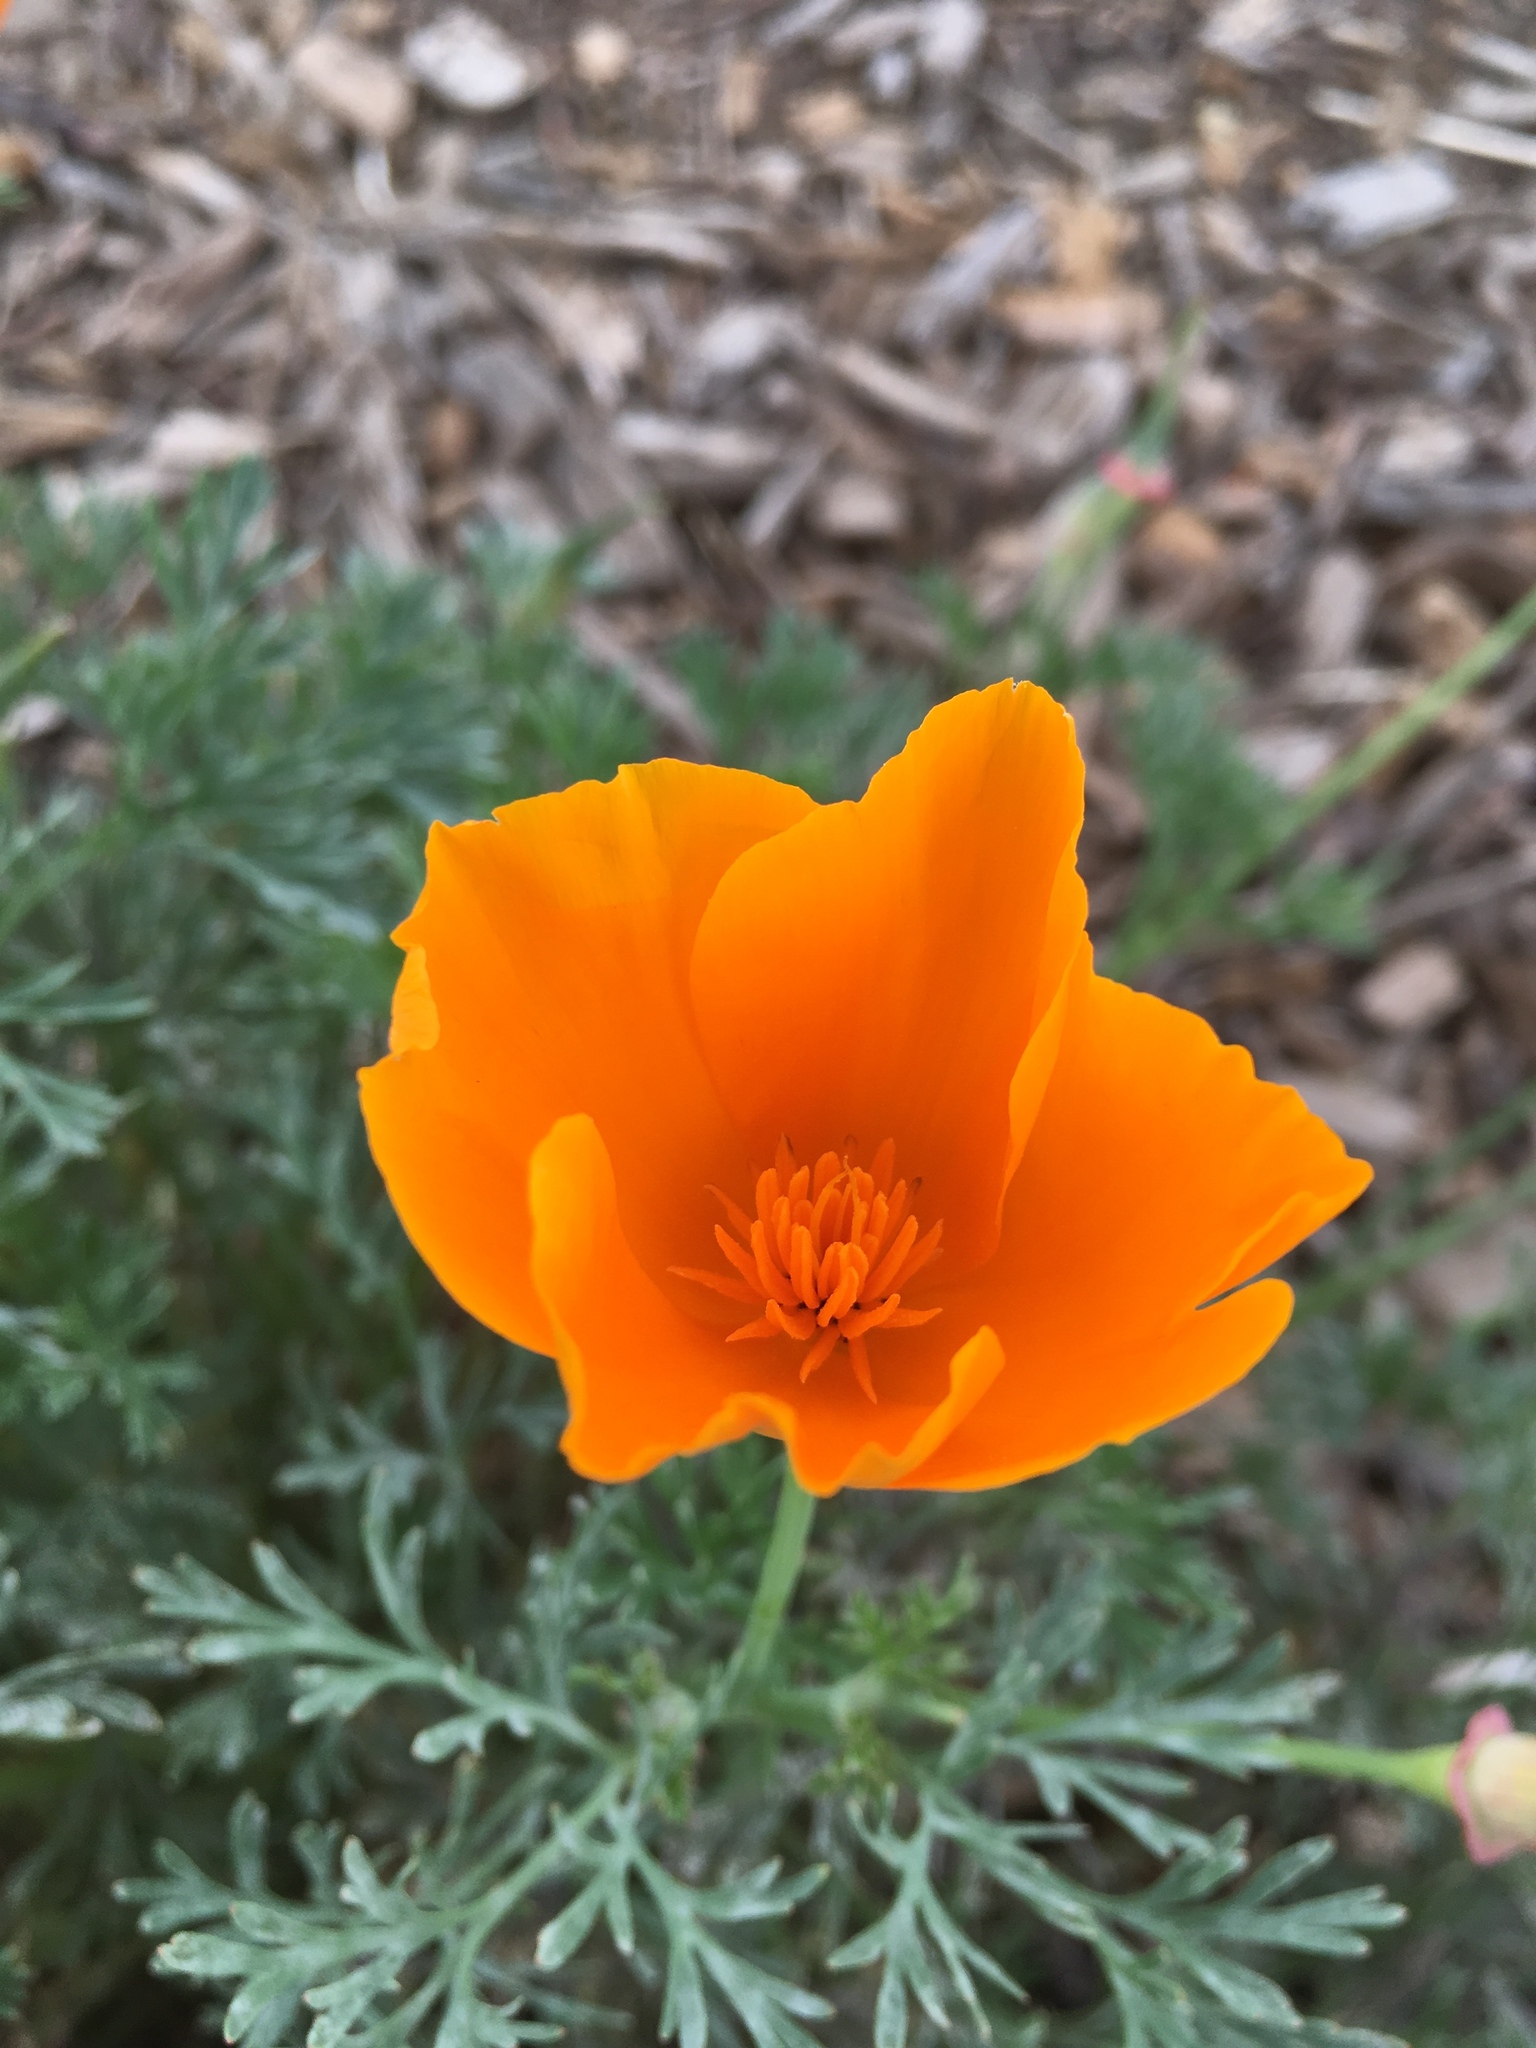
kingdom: Plantae
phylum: Tracheophyta
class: Magnoliopsida
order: Ranunculales
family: Papaveraceae
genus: Eschscholzia
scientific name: Eschscholzia californica
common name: California poppy
